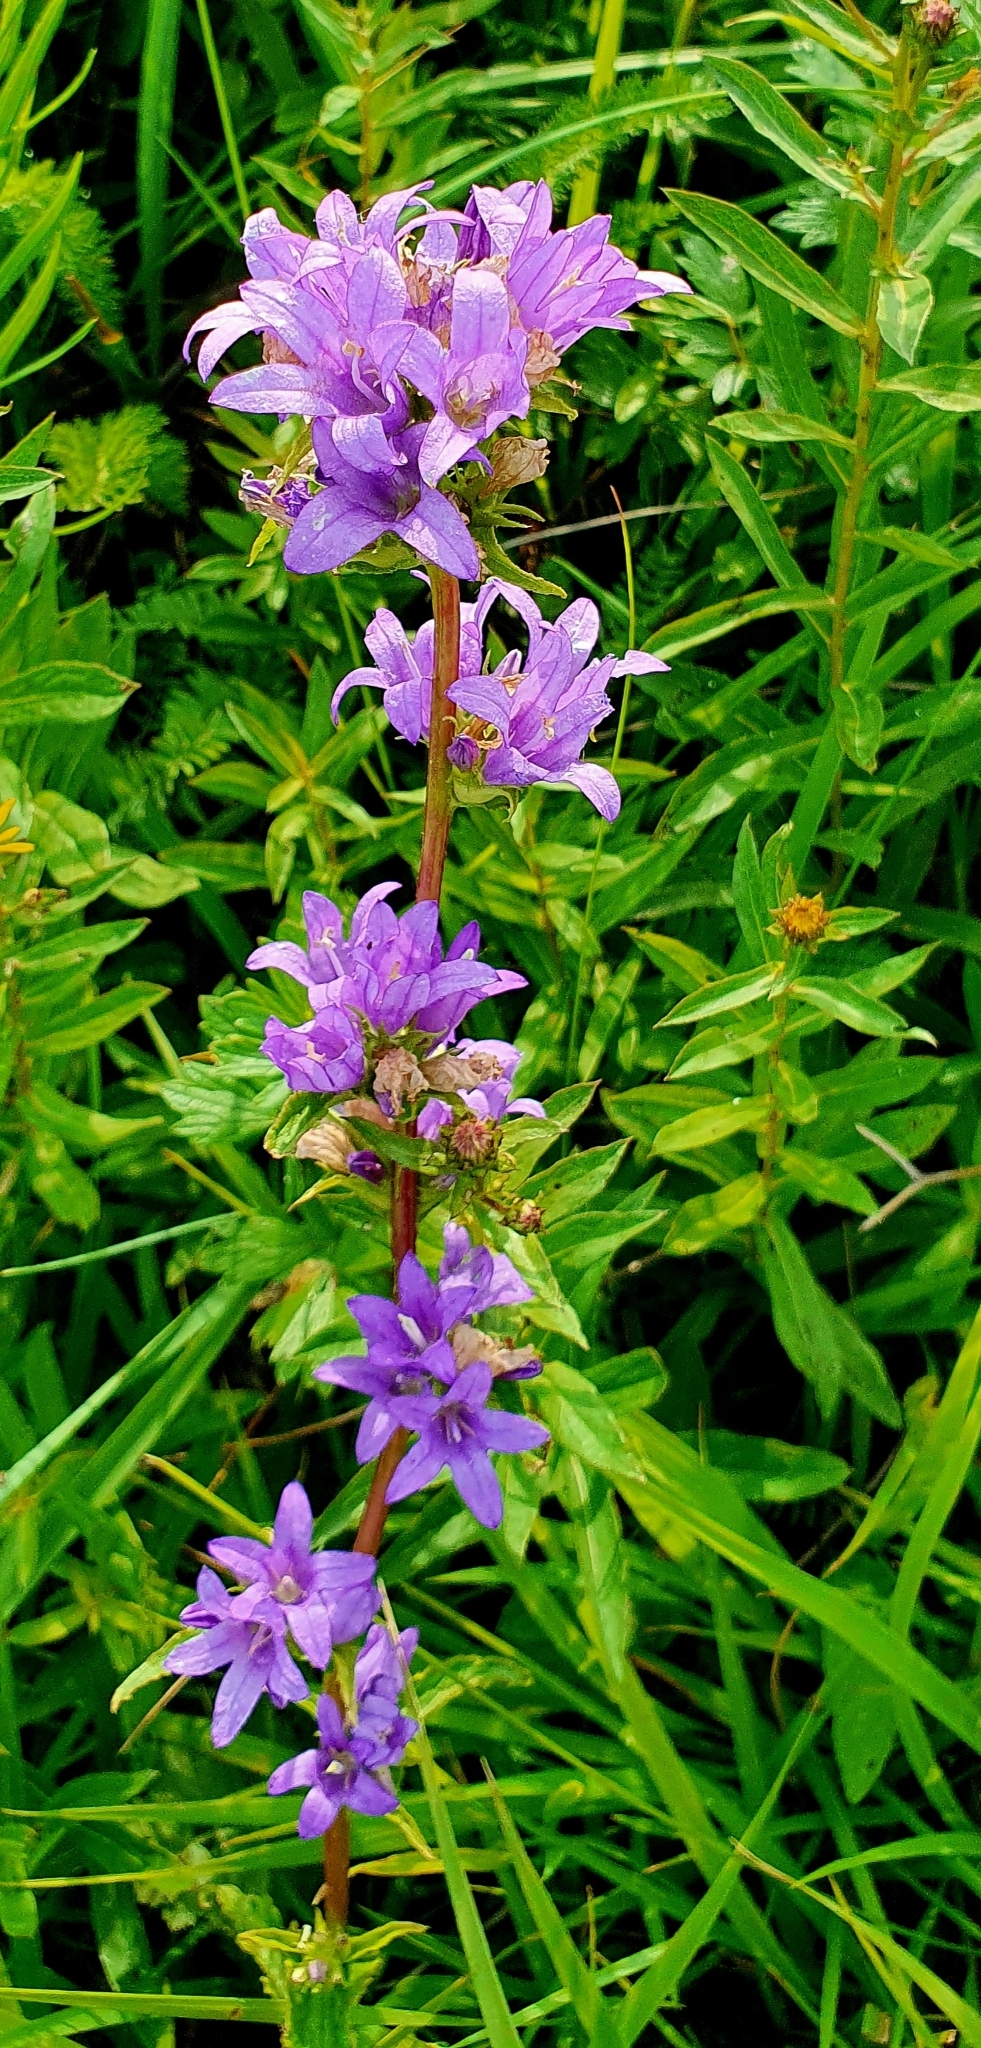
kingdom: Plantae
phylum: Tracheophyta
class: Magnoliopsida
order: Asterales
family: Campanulaceae
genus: Campanula
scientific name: Campanula glomerata
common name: Clustered bellflower
